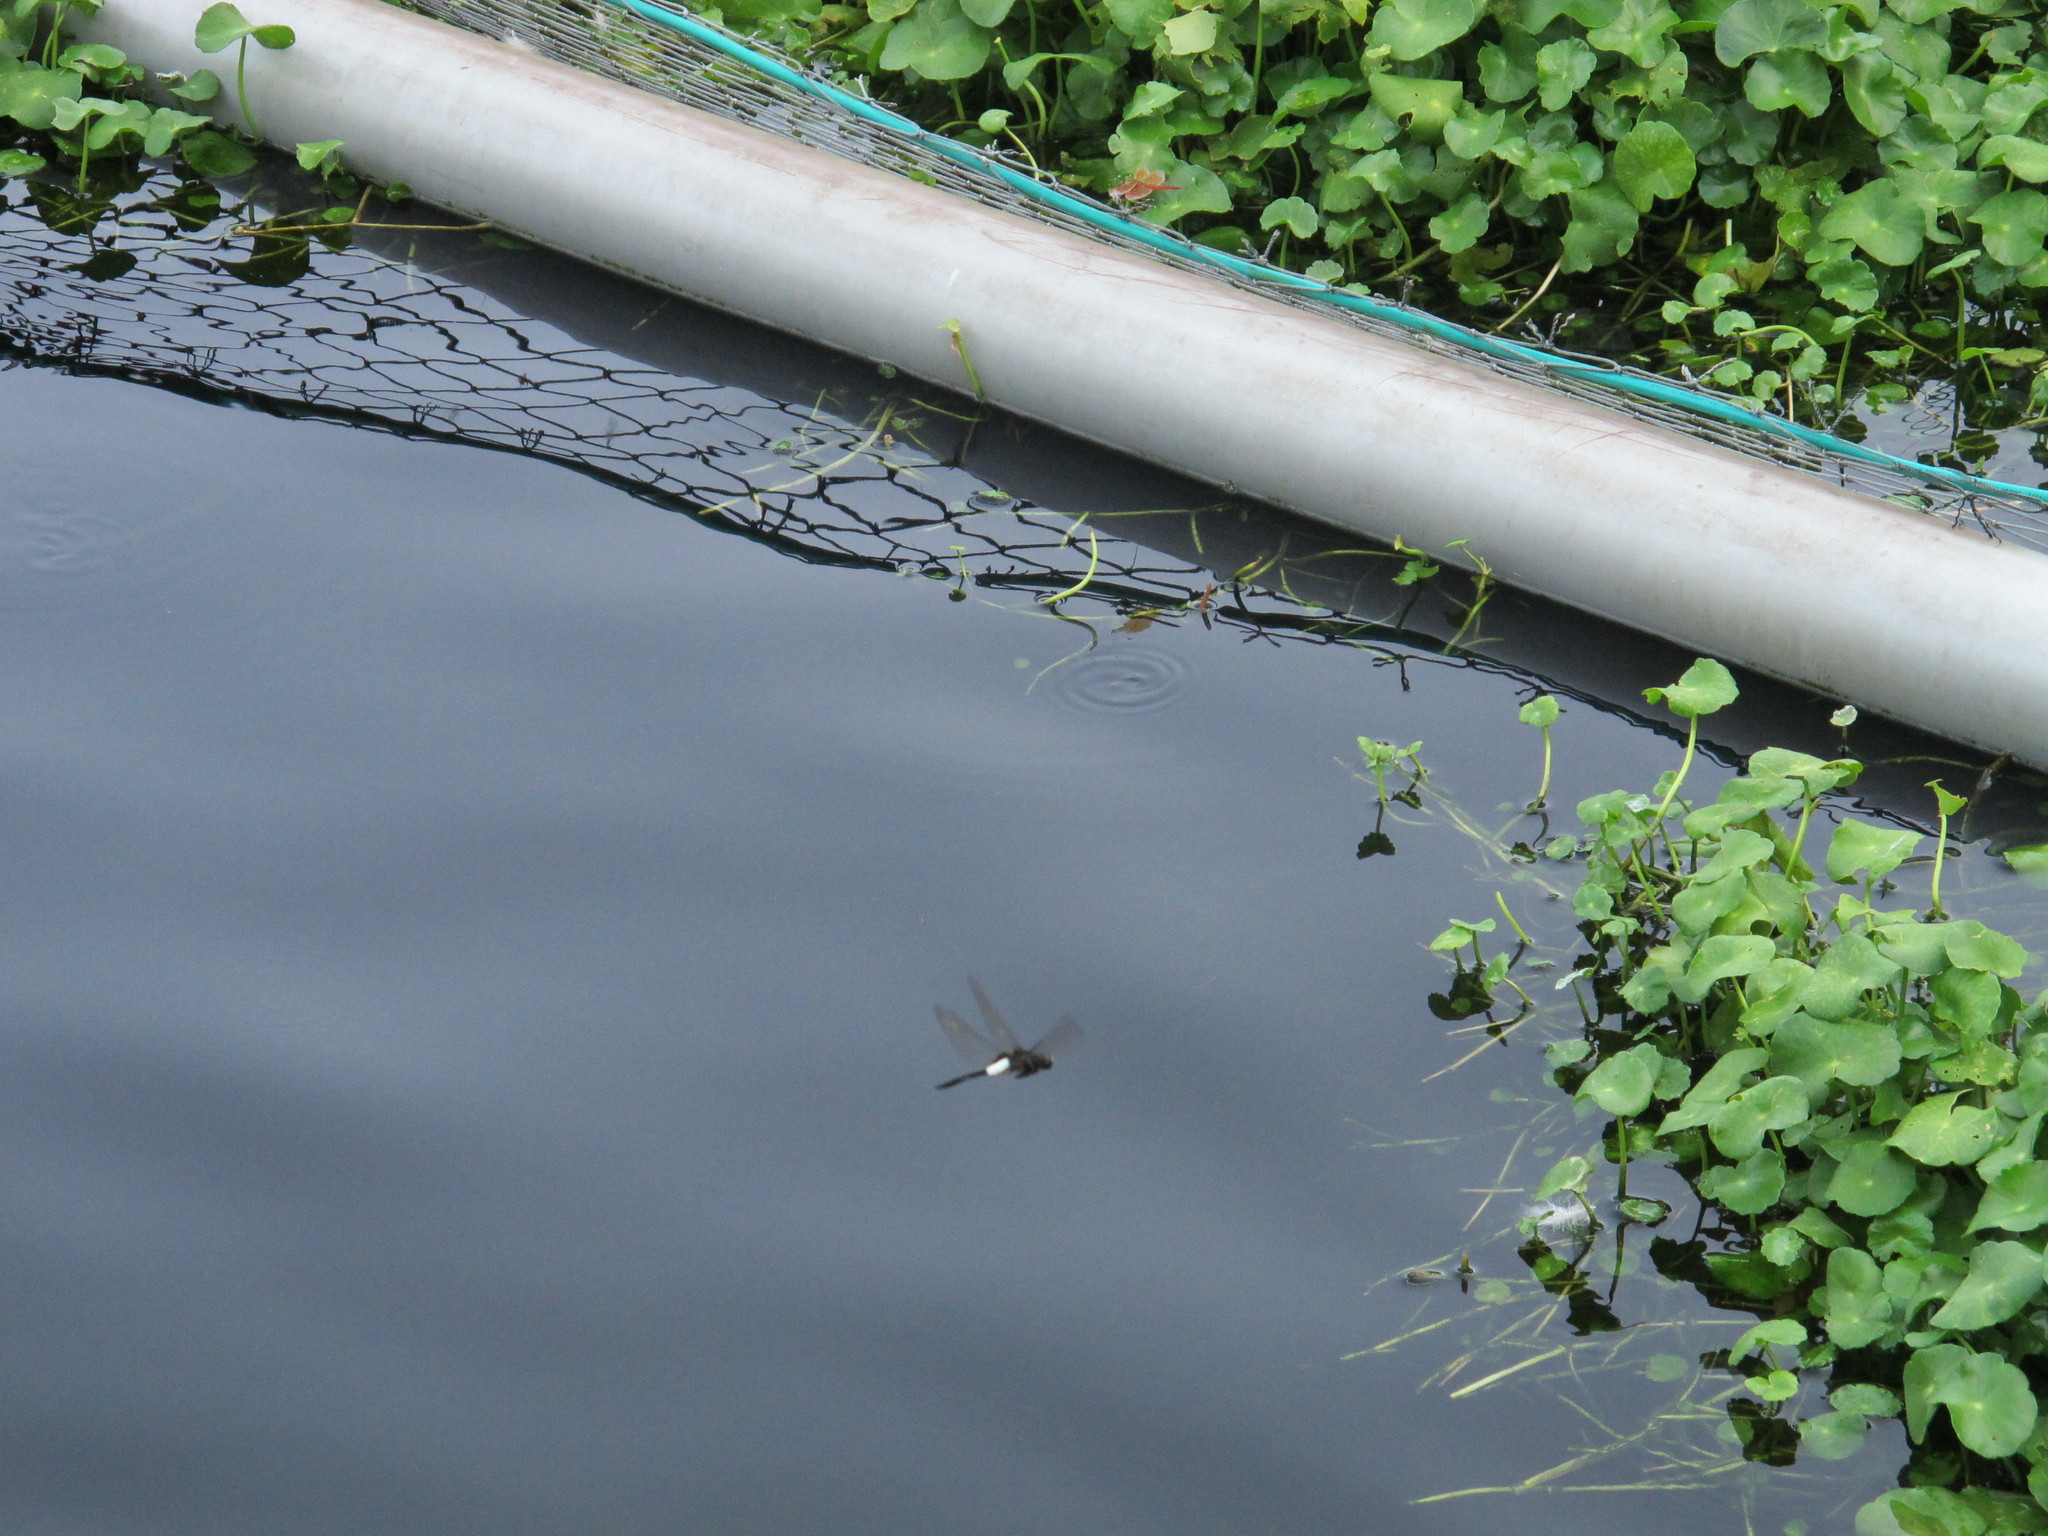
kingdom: Animalia
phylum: Arthropoda
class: Insecta
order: Odonata
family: Libellulidae
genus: Pseudothemis
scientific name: Pseudothemis zonata
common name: Pied skimmer
